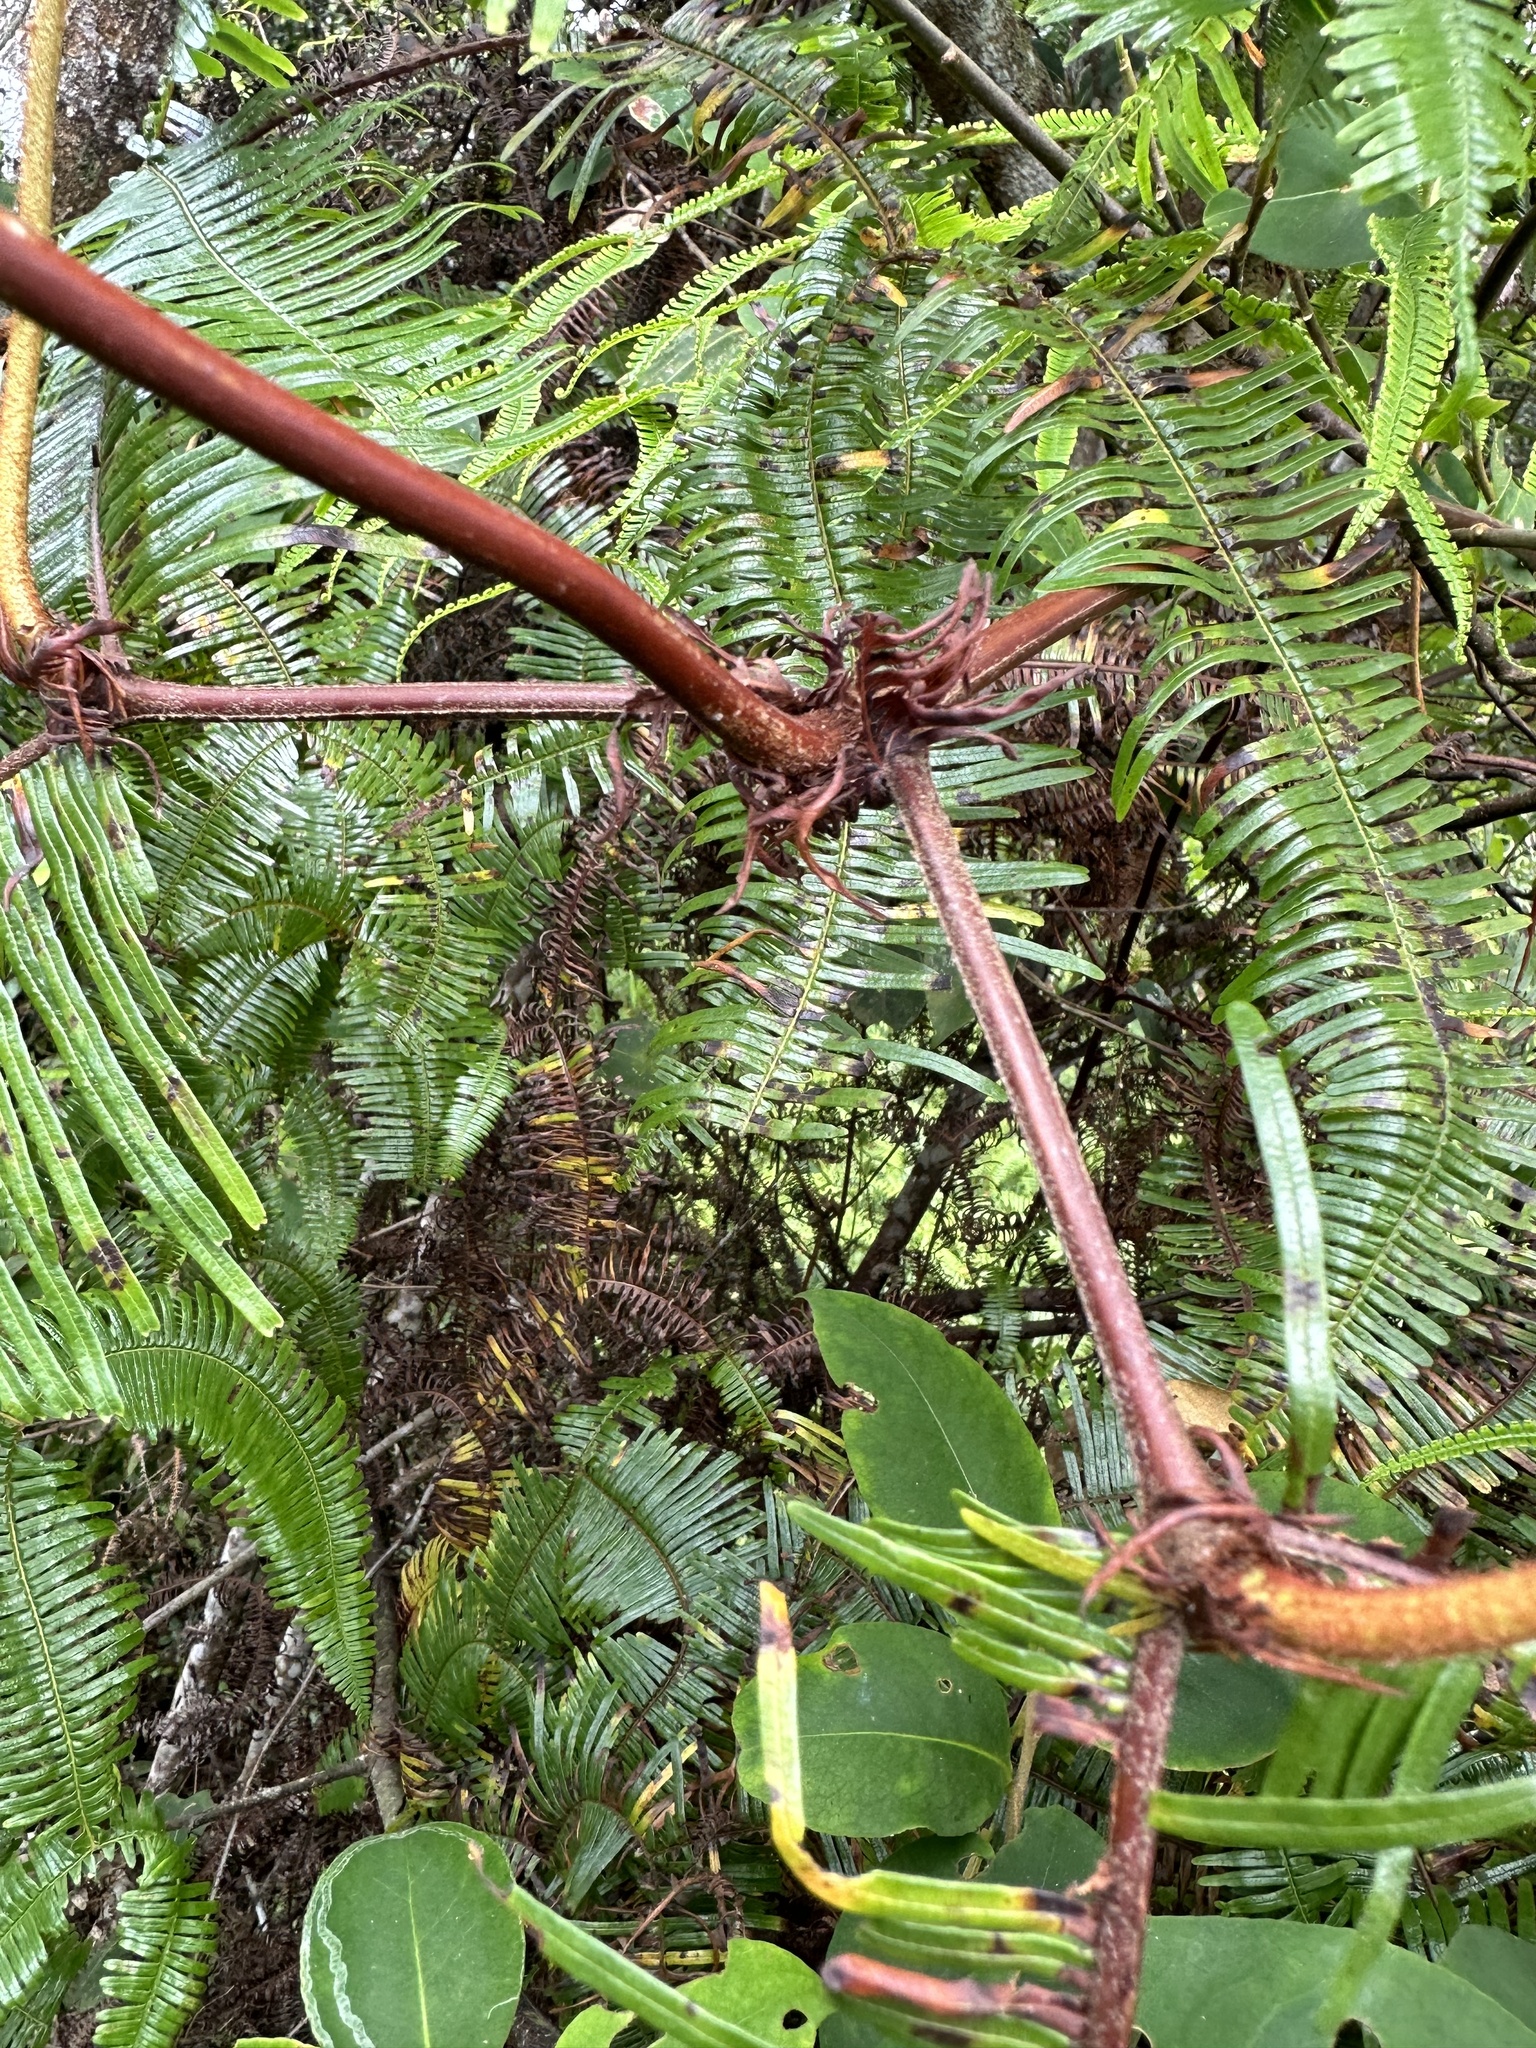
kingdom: Plantae
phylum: Tracheophyta
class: Polypodiopsida
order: Gleicheniales
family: Gleicheniaceae
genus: Sticherus
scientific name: Sticherus truncatus
